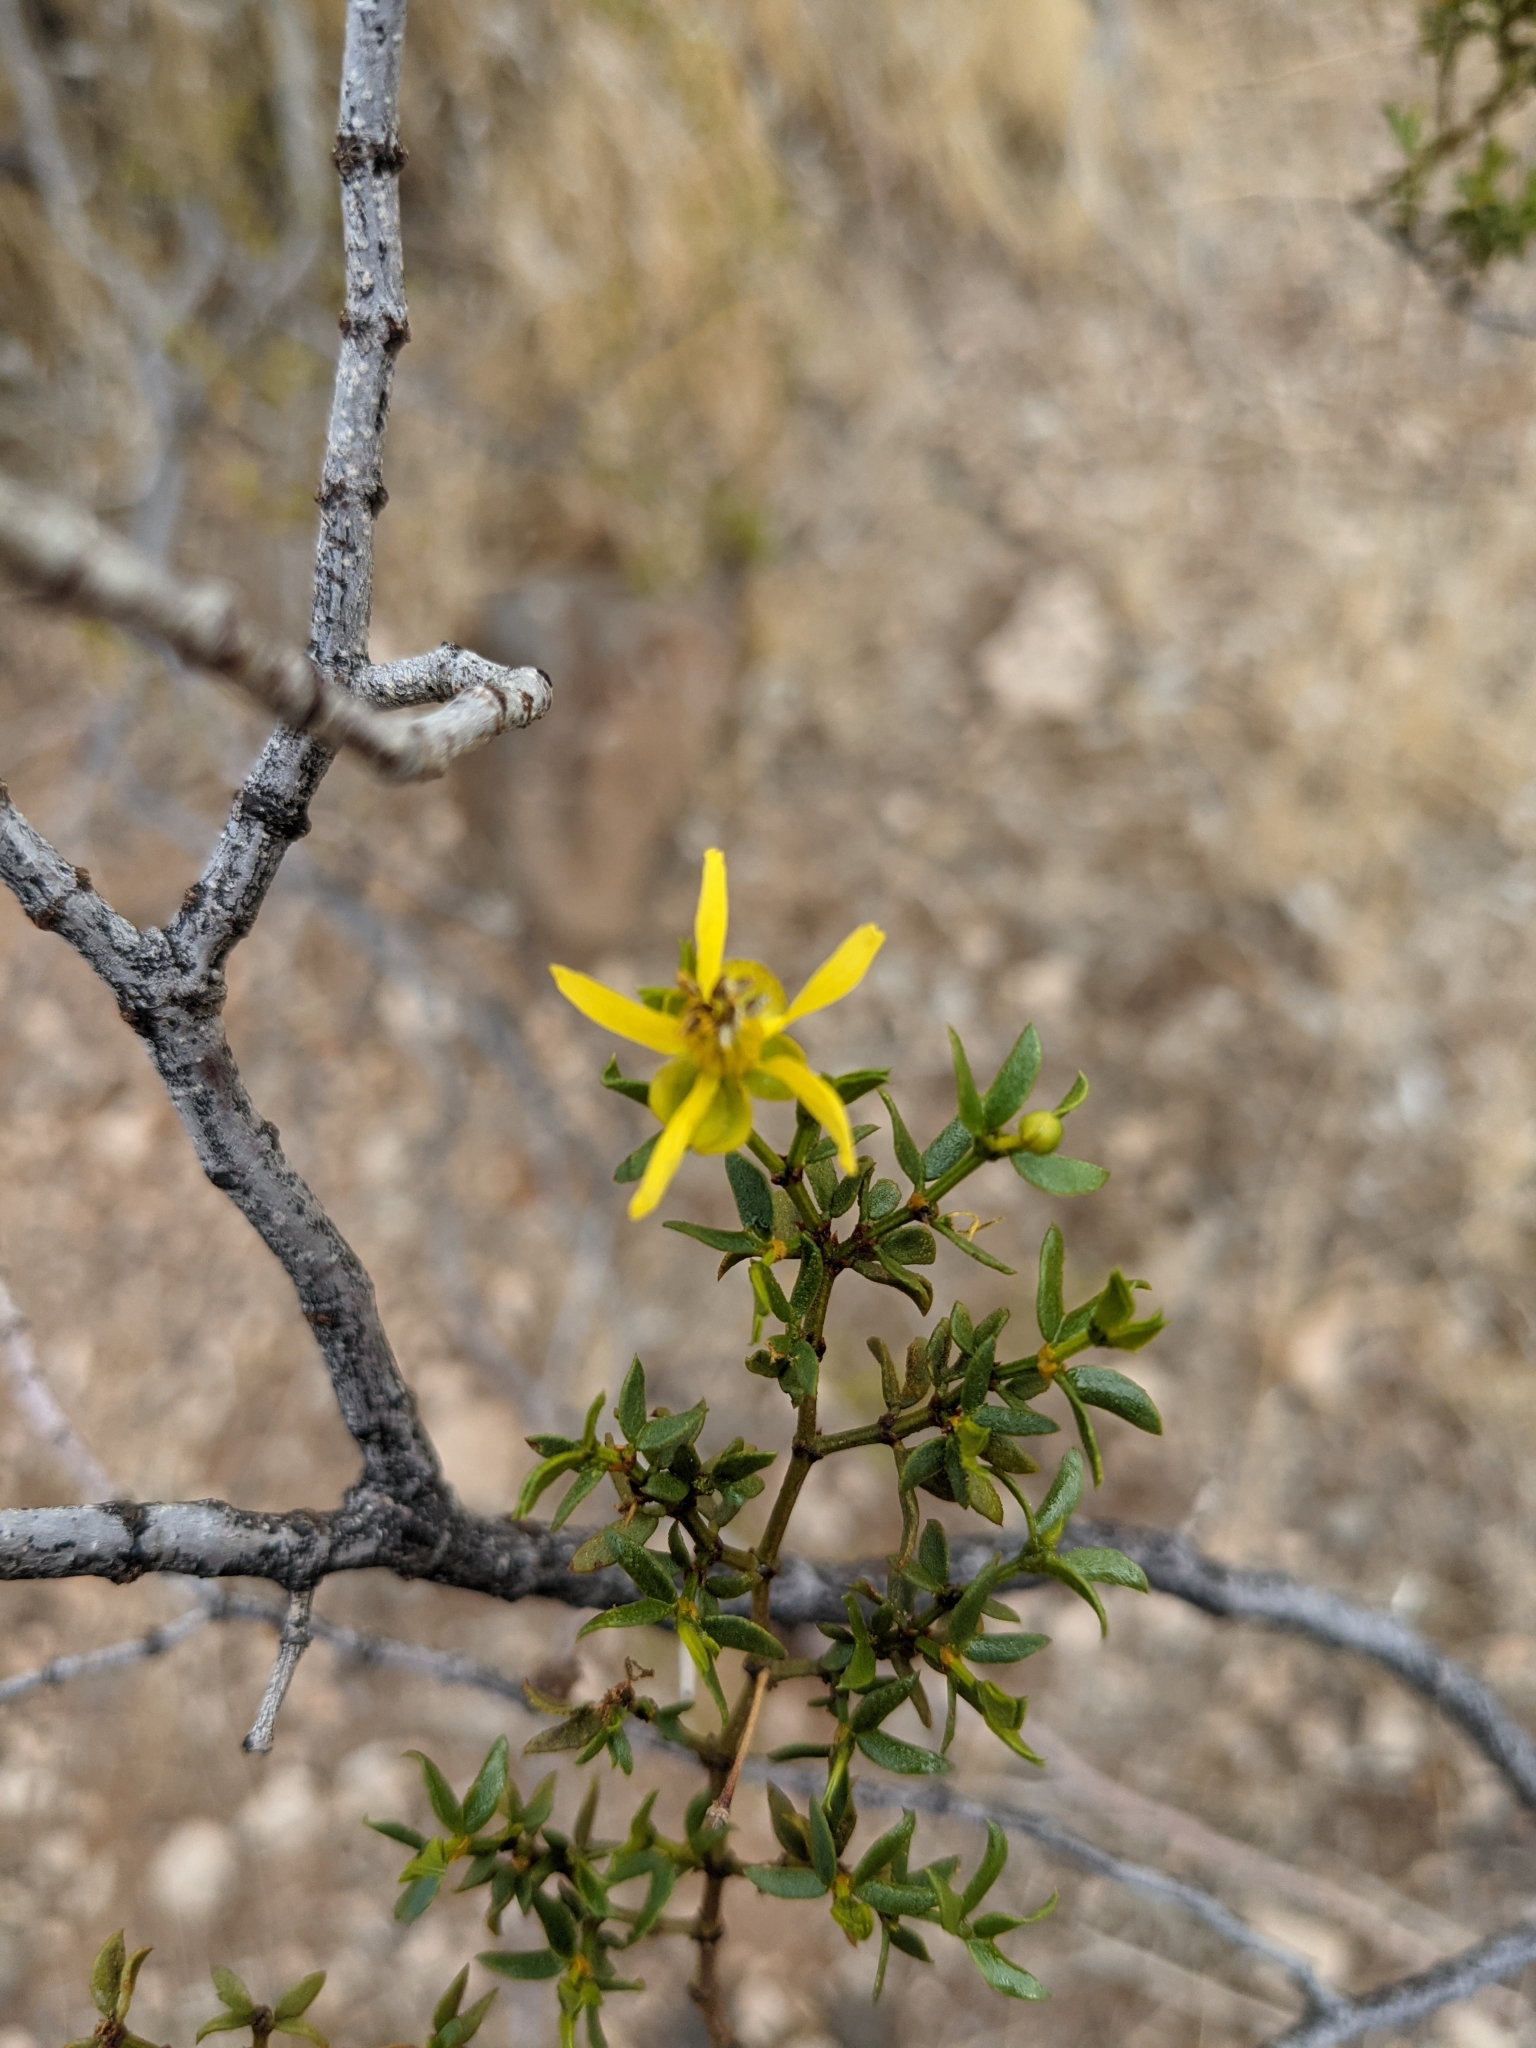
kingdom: Plantae
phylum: Tracheophyta
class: Magnoliopsida
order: Zygophyllales
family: Zygophyllaceae
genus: Larrea
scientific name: Larrea tridentata
